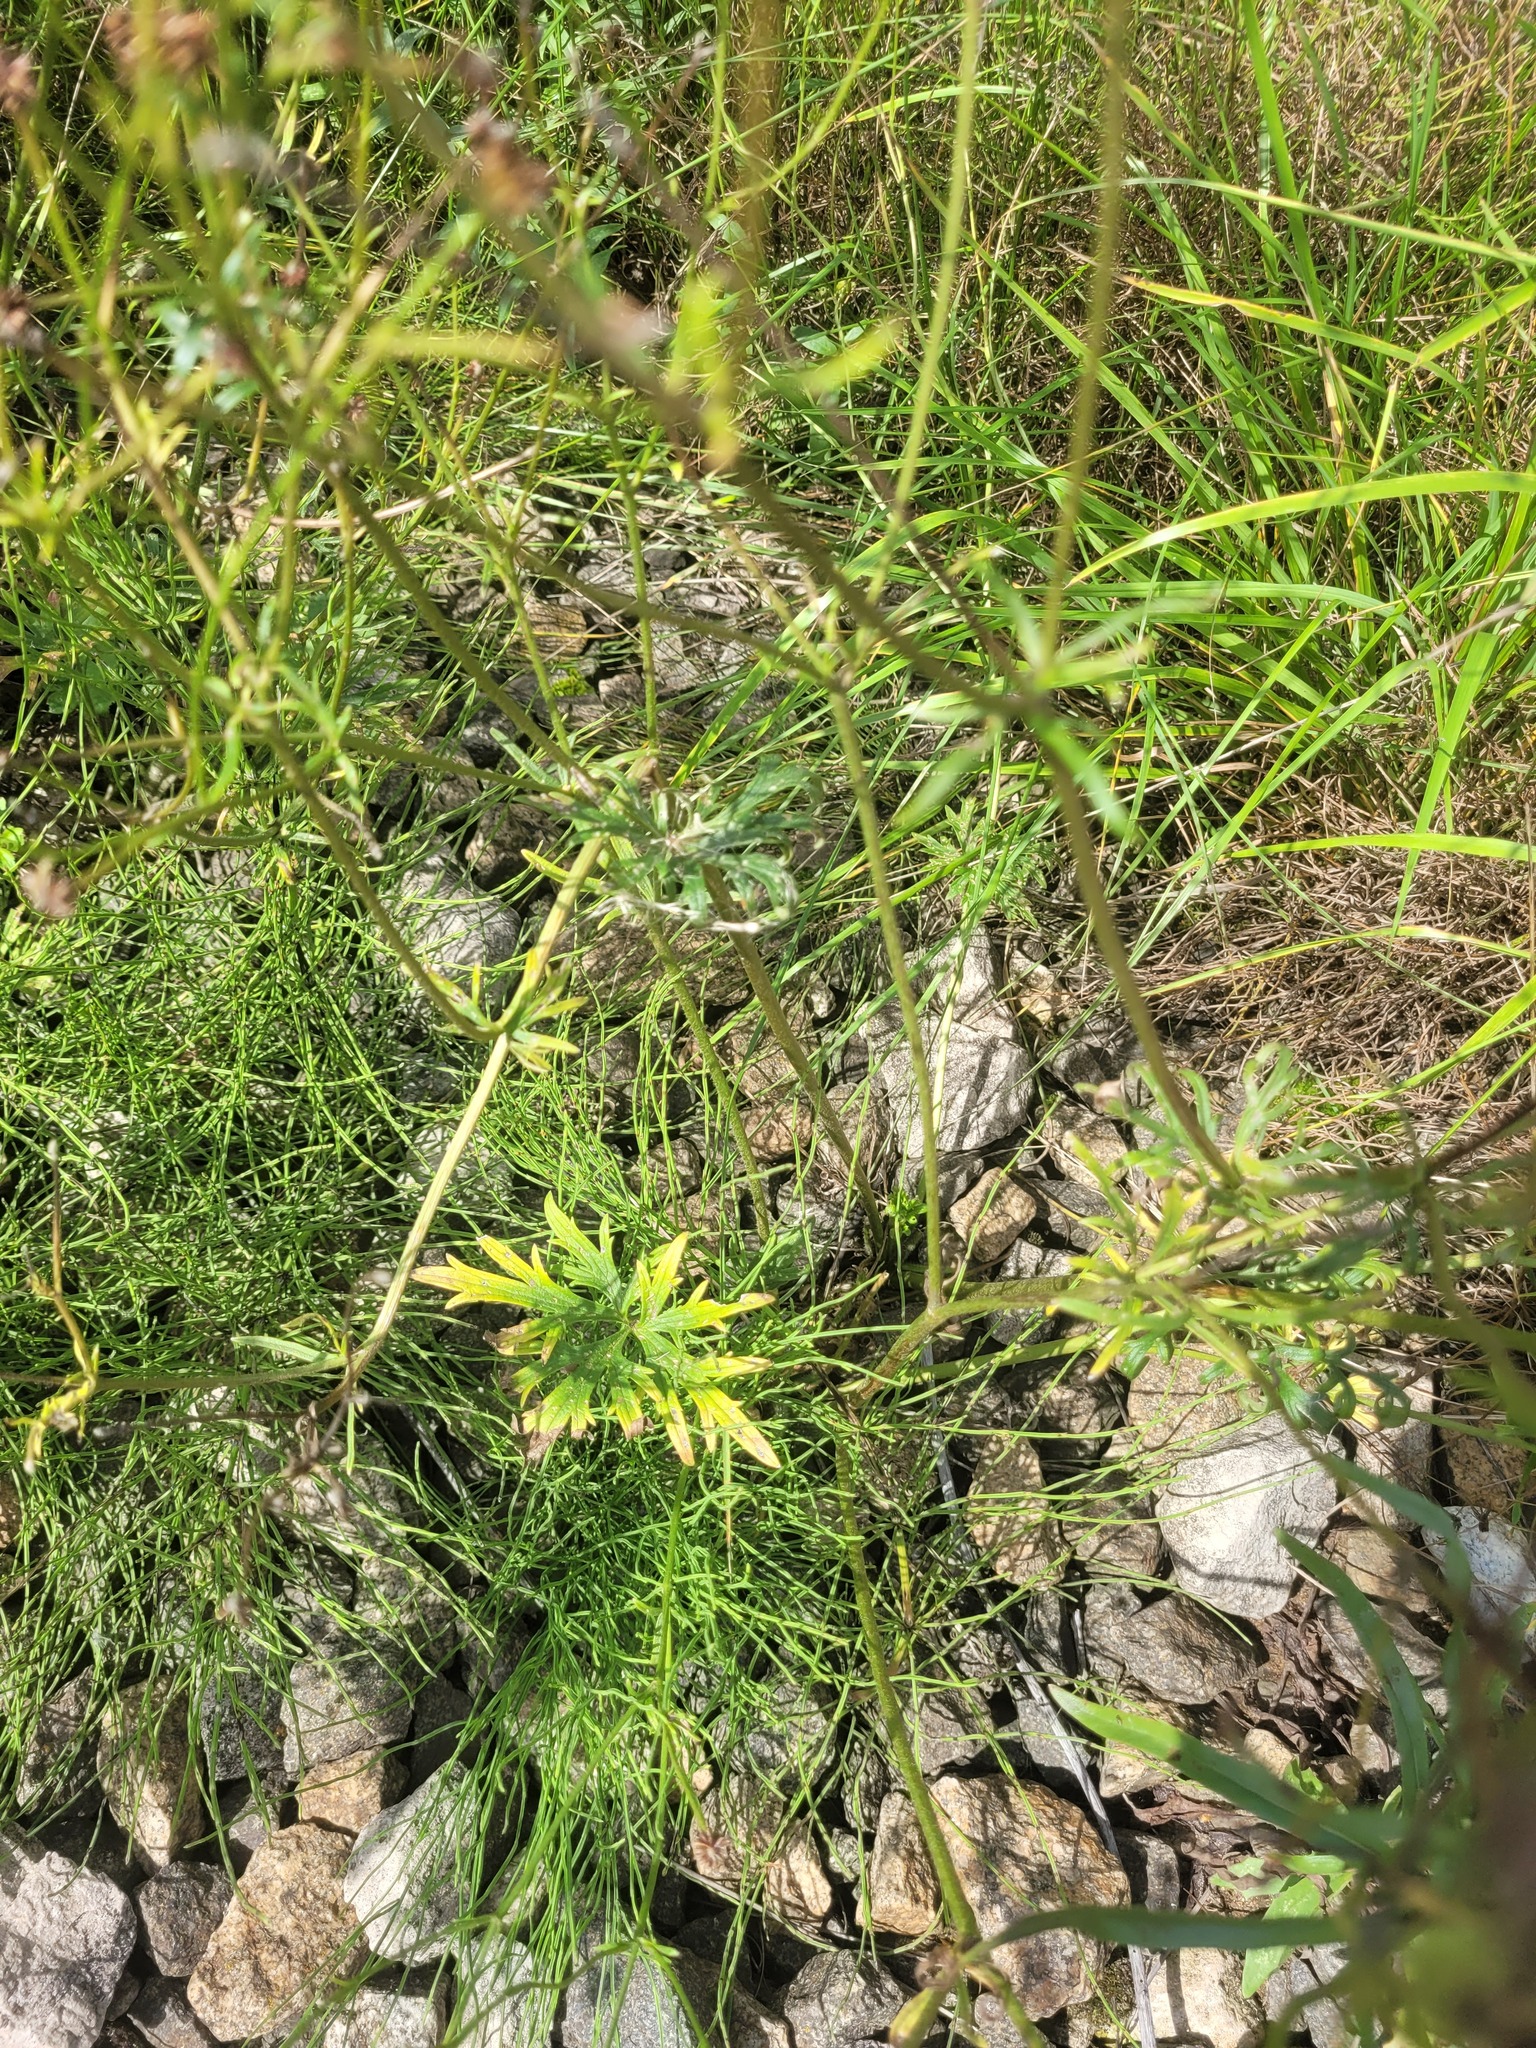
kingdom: Plantae
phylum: Tracheophyta
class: Magnoliopsida
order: Ranunculales
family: Ranunculaceae
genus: Ranunculus
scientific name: Ranunculus polyanthemos
